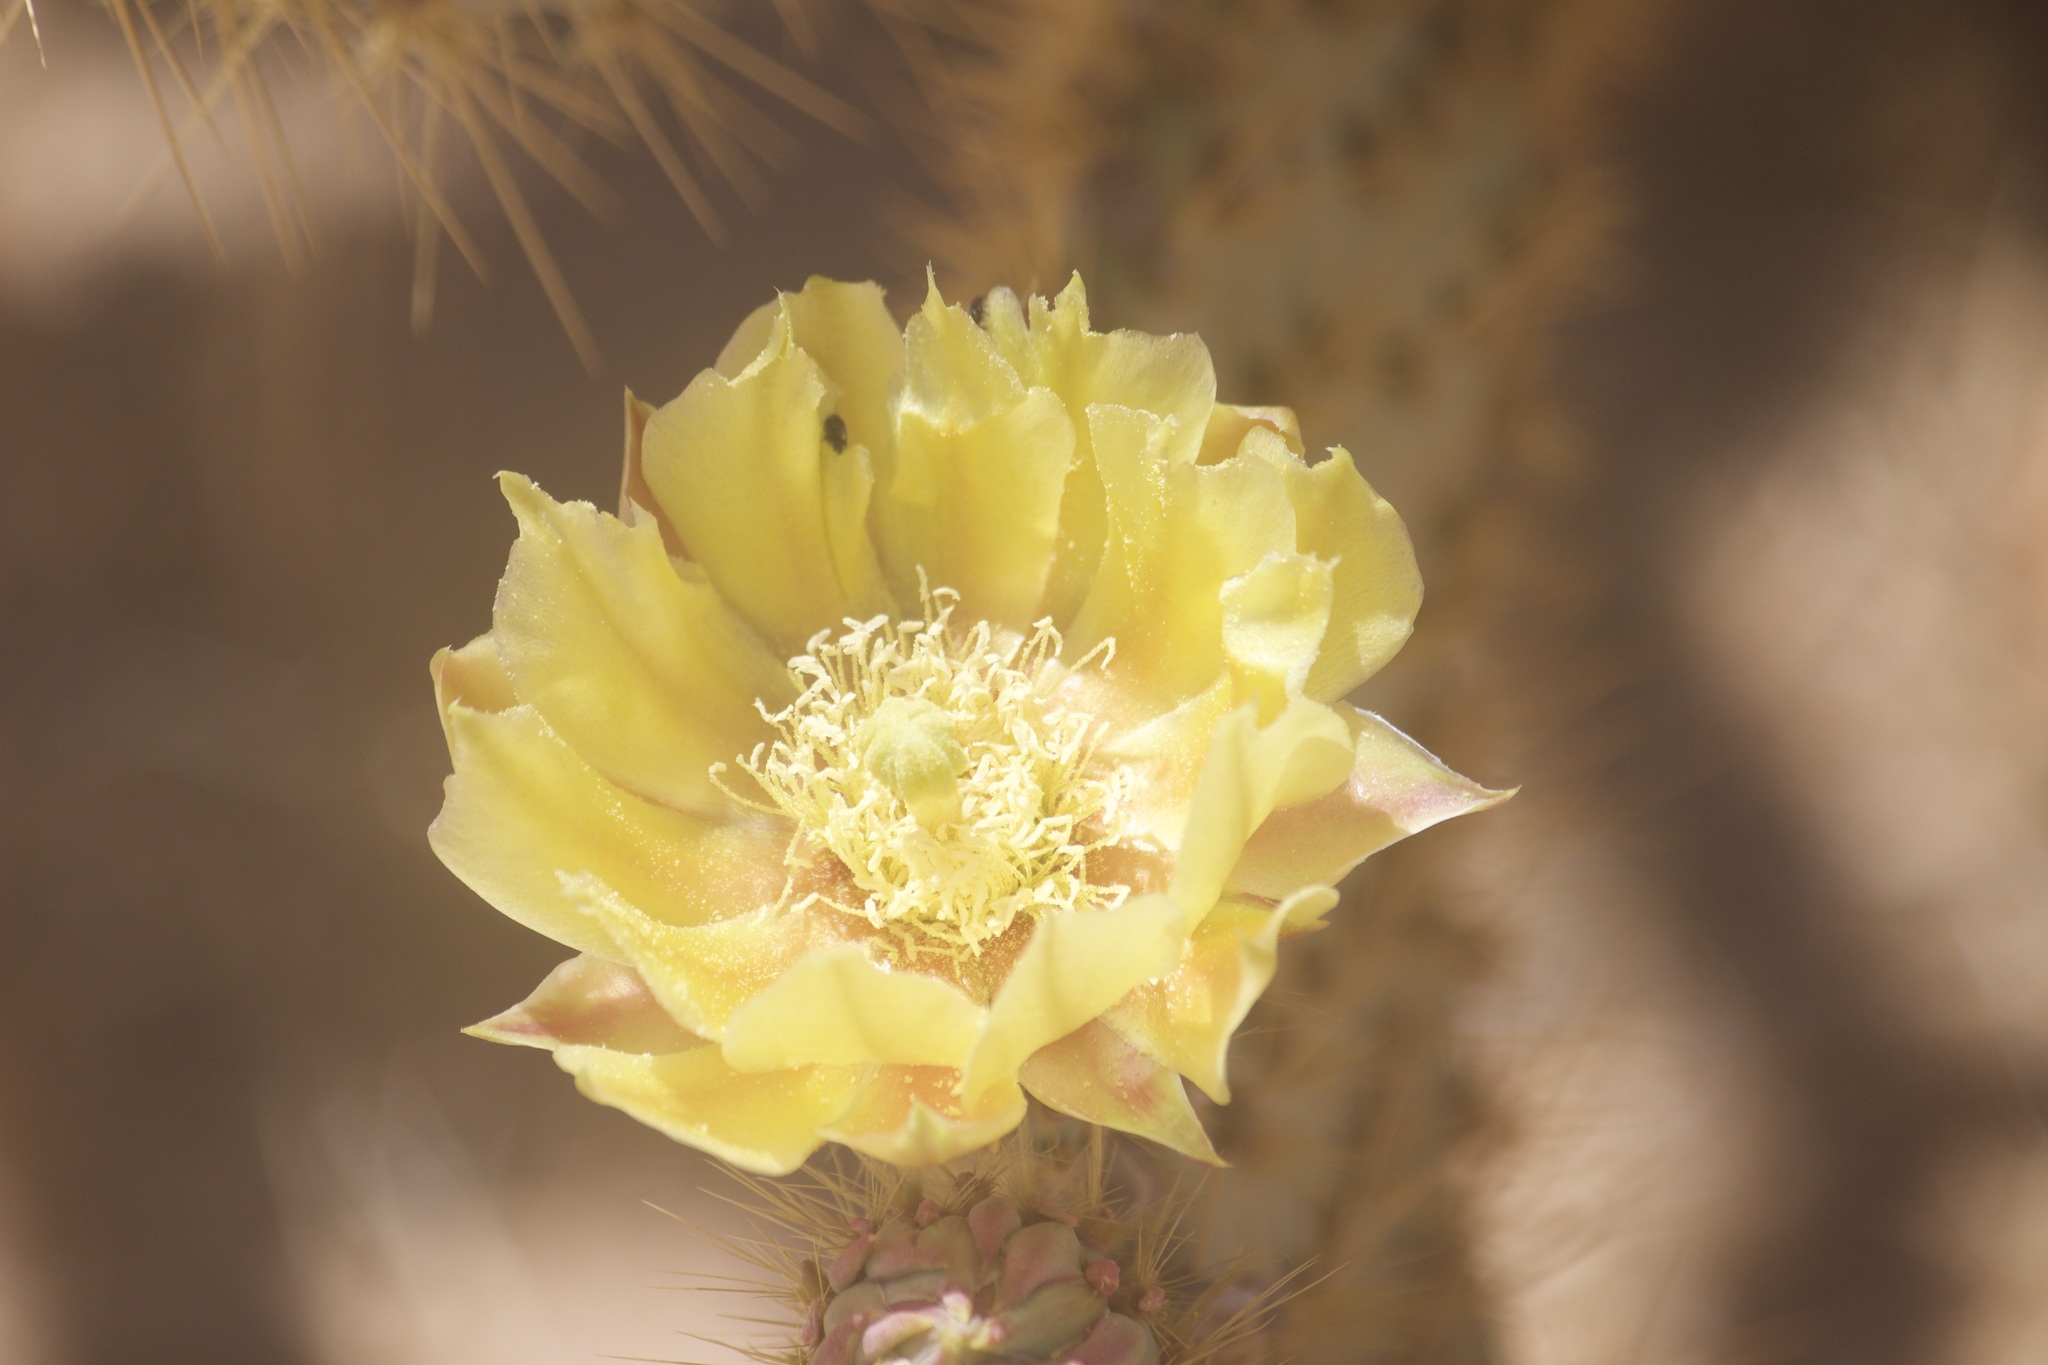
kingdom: Plantae
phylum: Tracheophyta
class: Magnoliopsida
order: Caryophyllales
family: Cactaceae
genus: Opuntia
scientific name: Opuntia chlorotica
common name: Dollar-joint prickly-pear
